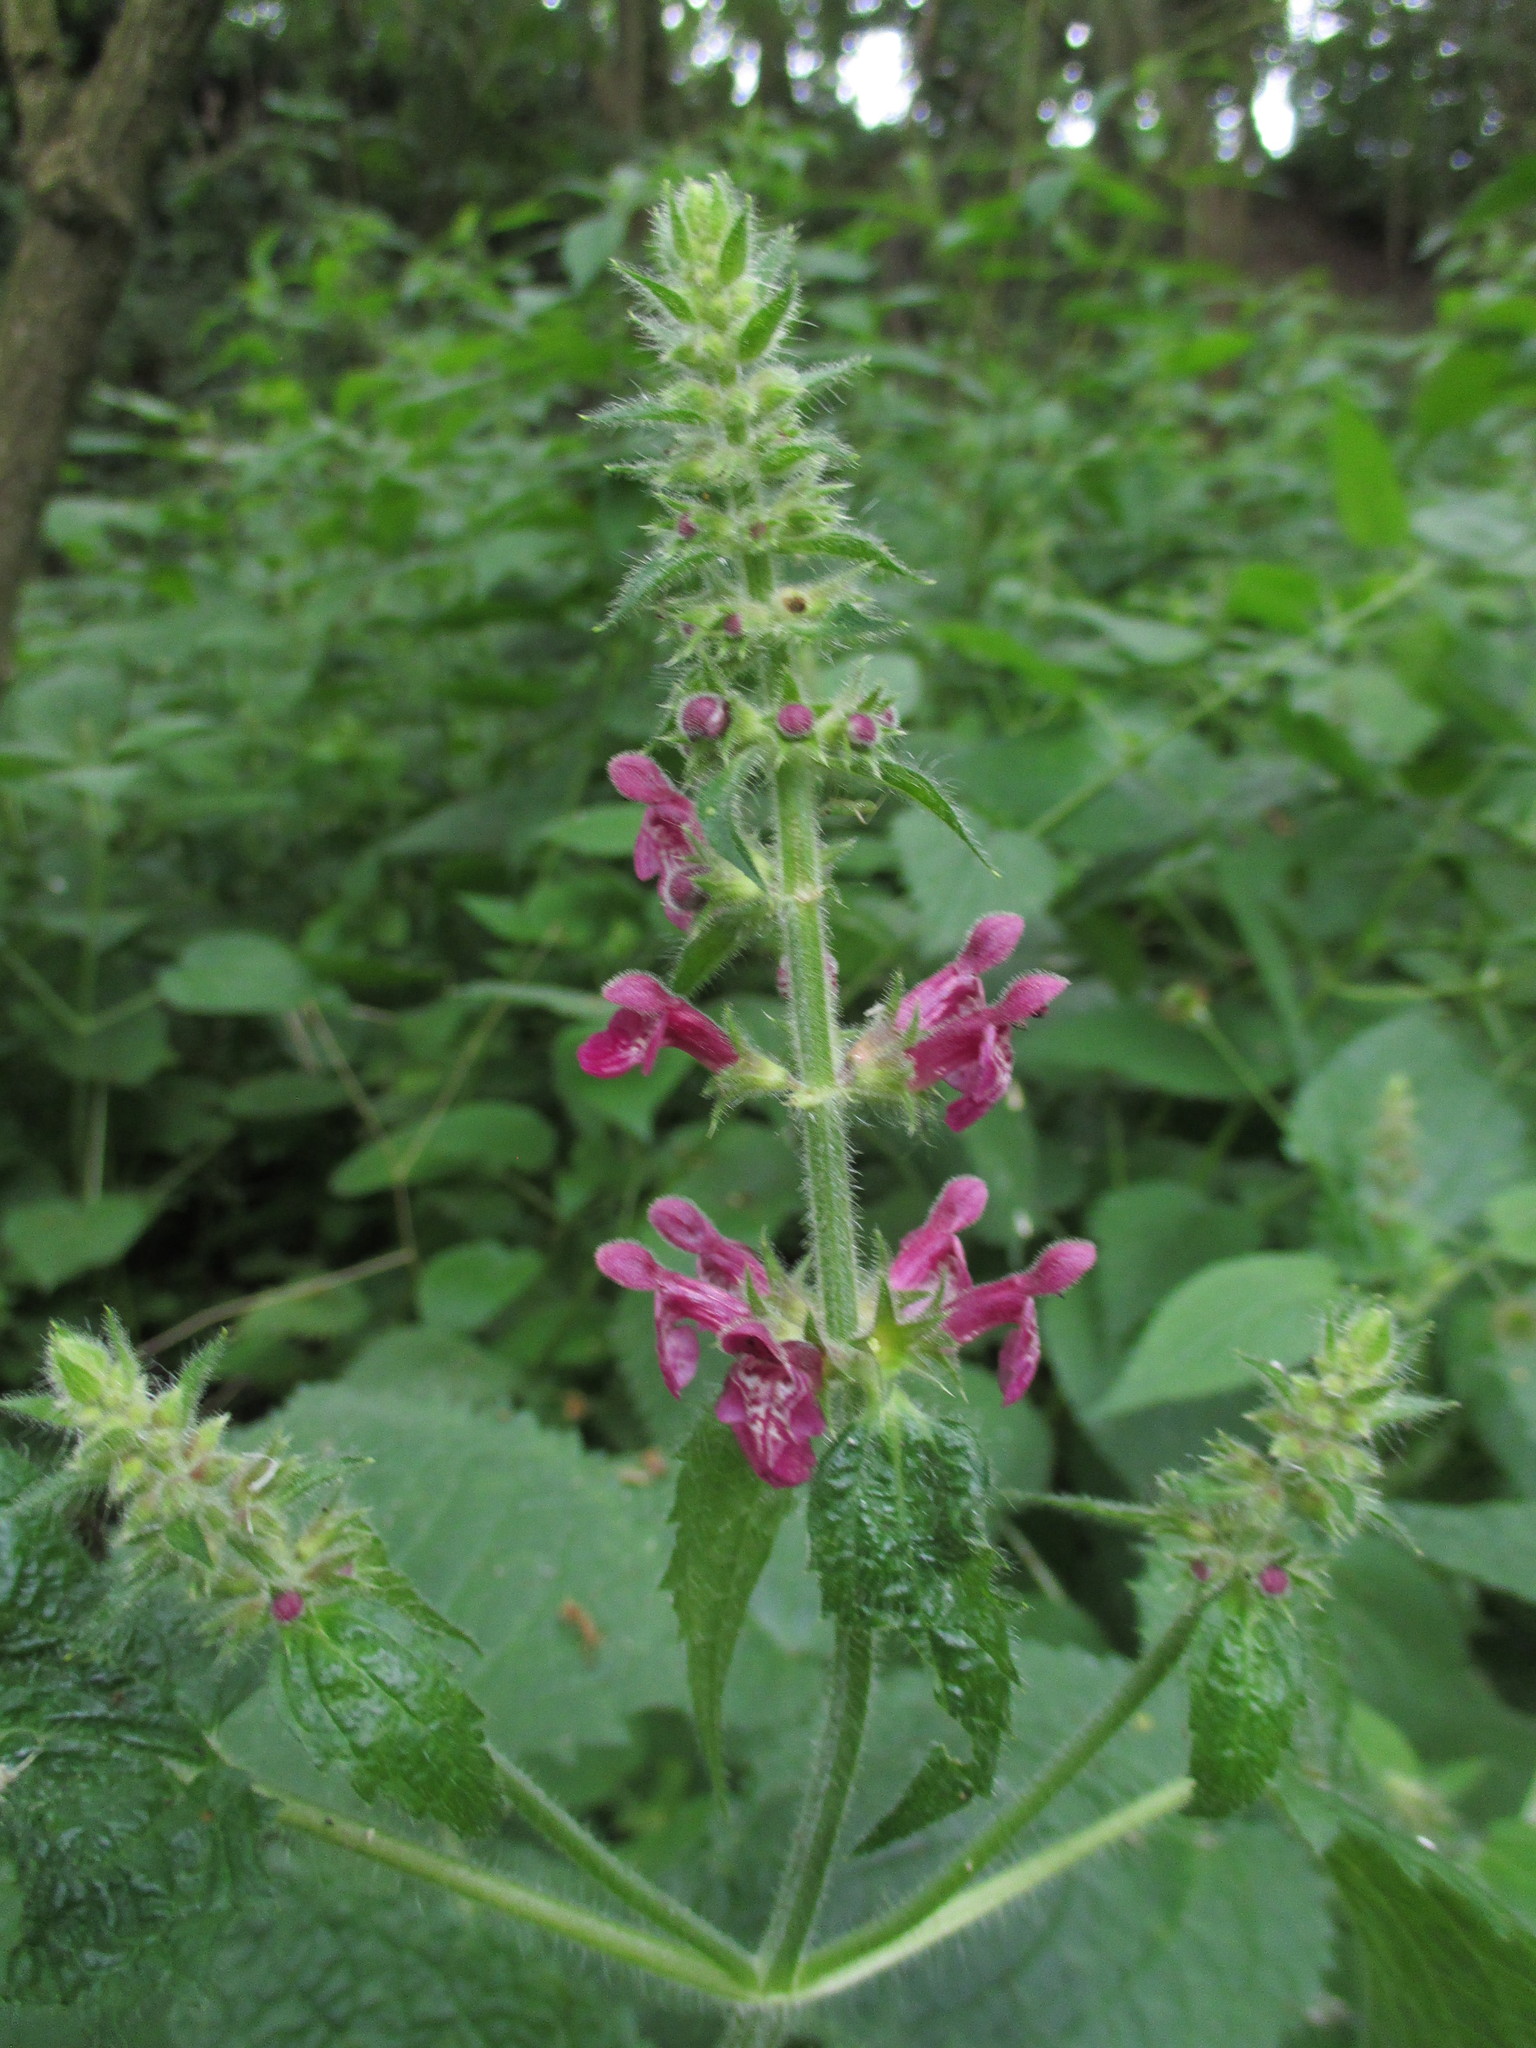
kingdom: Plantae
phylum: Tracheophyta
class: Magnoliopsida
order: Lamiales
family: Lamiaceae
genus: Stachys
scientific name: Stachys sylvatica
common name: Hedge woundwort
